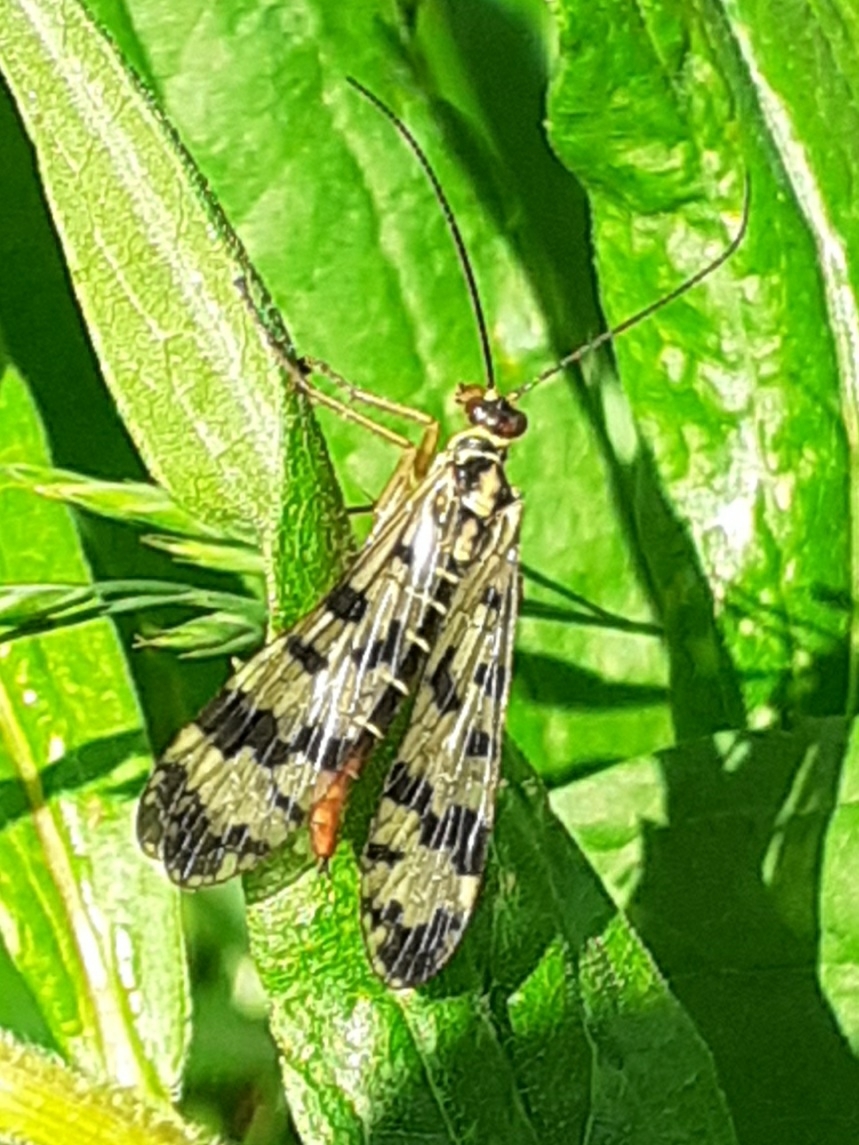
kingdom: Animalia
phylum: Arthropoda
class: Insecta
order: Mecoptera
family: Panorpidae
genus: Panorpa
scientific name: Panorpa communis
